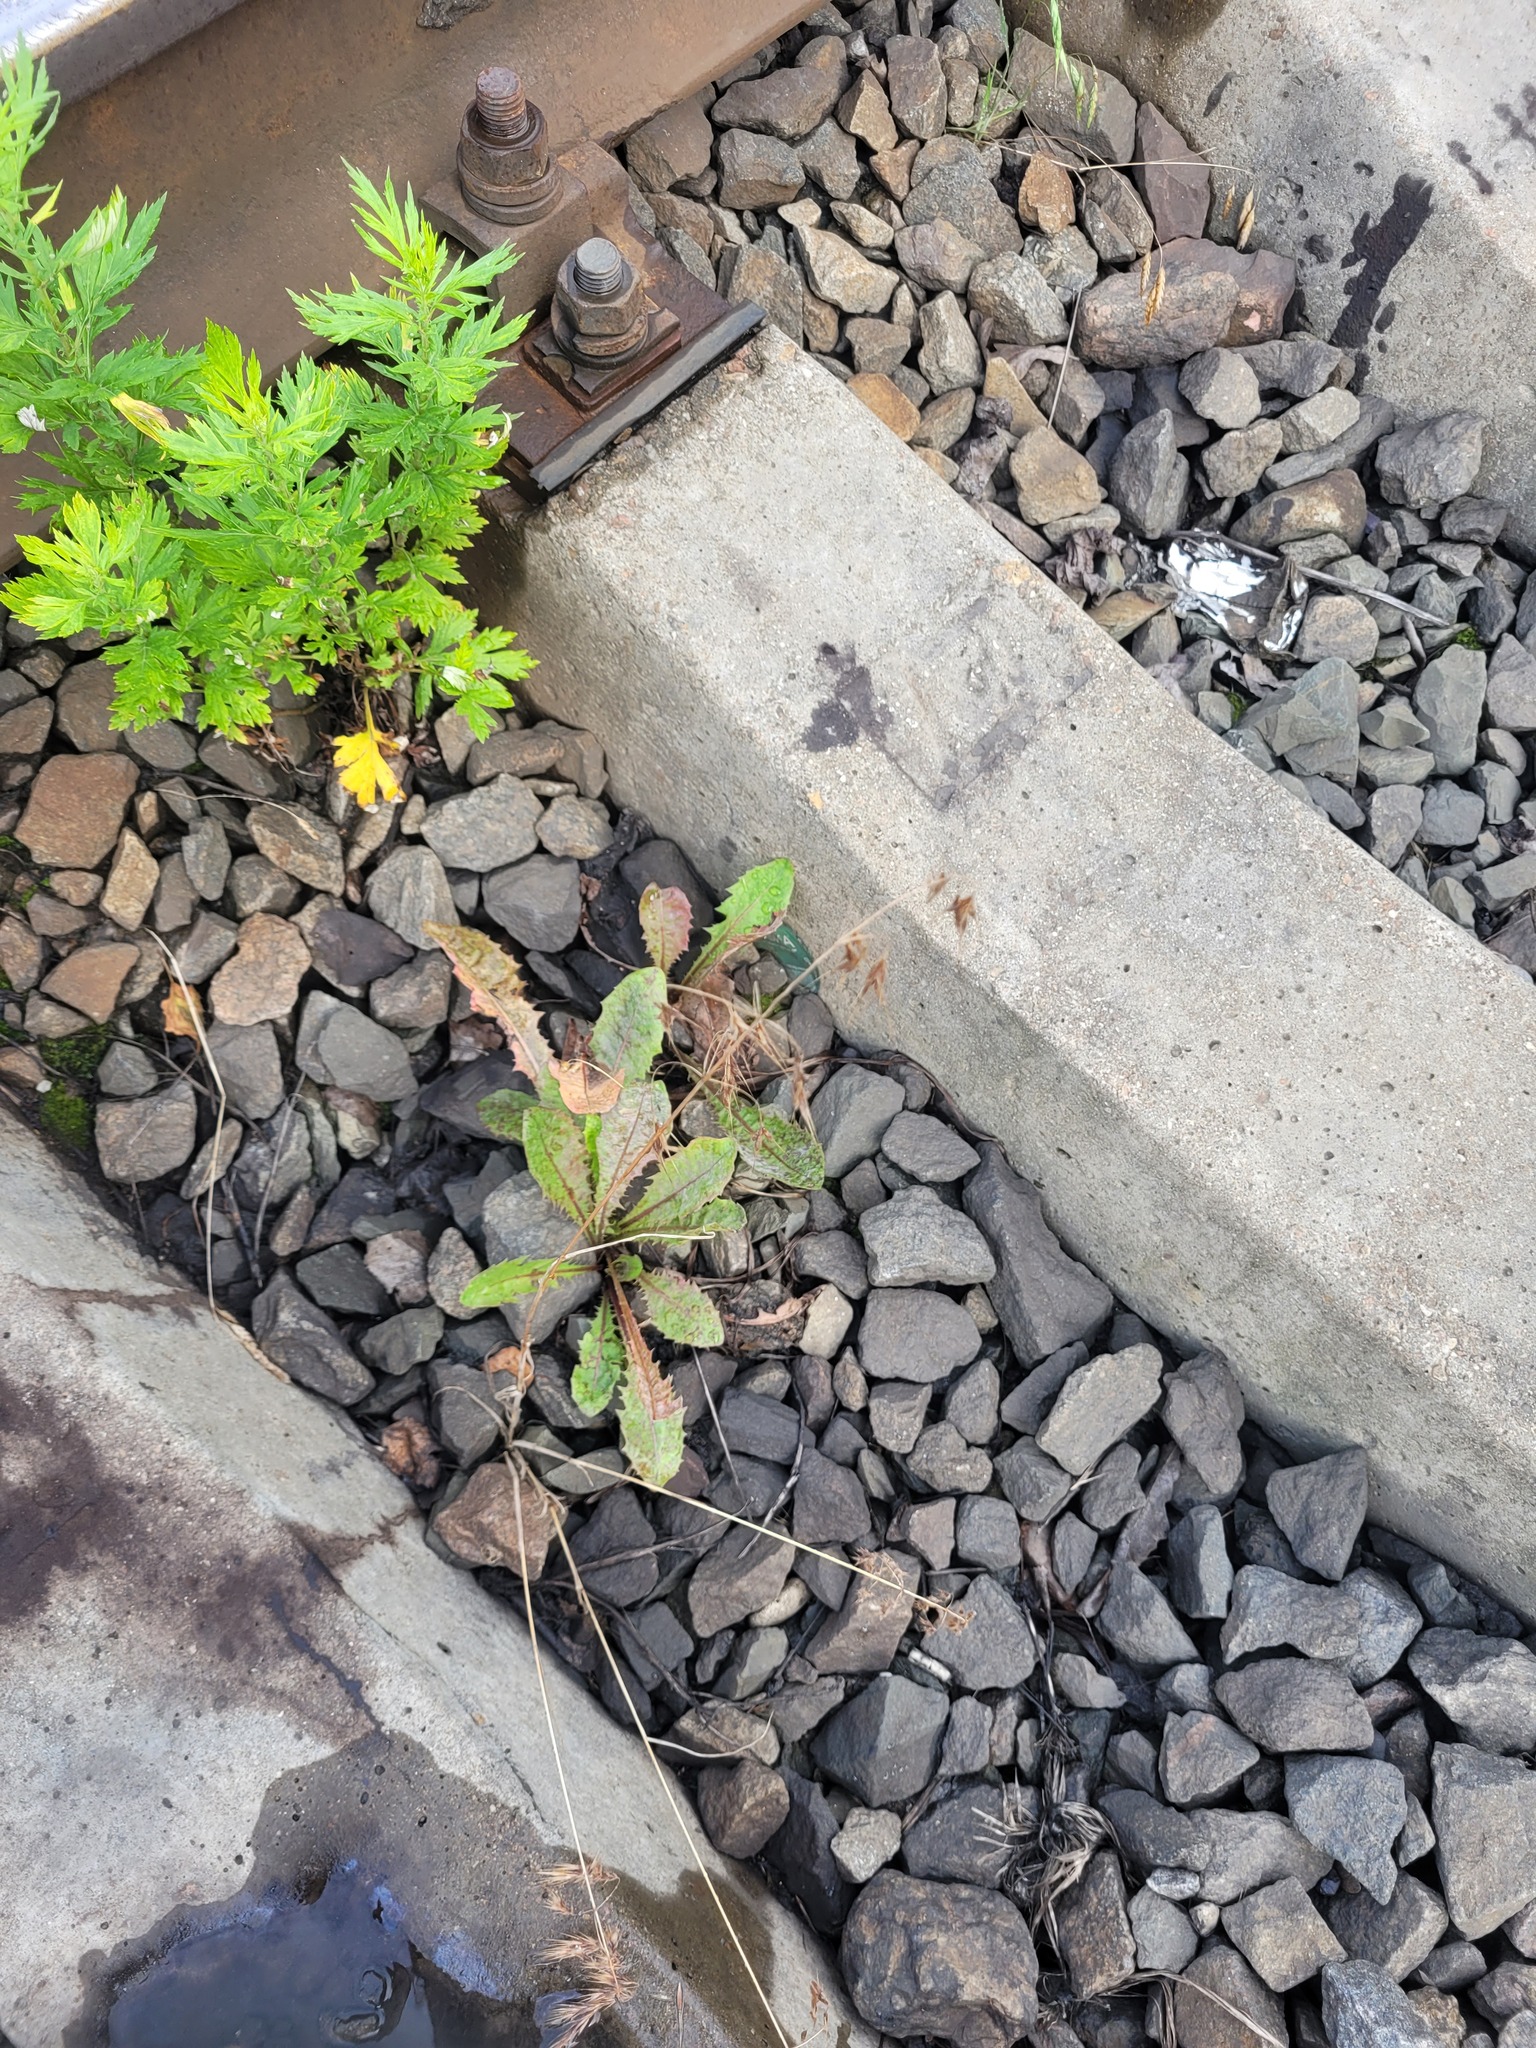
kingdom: Plantae
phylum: Tracheophyta
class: Liliopsida
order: Poales
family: Poaceae
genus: Bromus
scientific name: Bromus tectorum
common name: Cheatgrass
